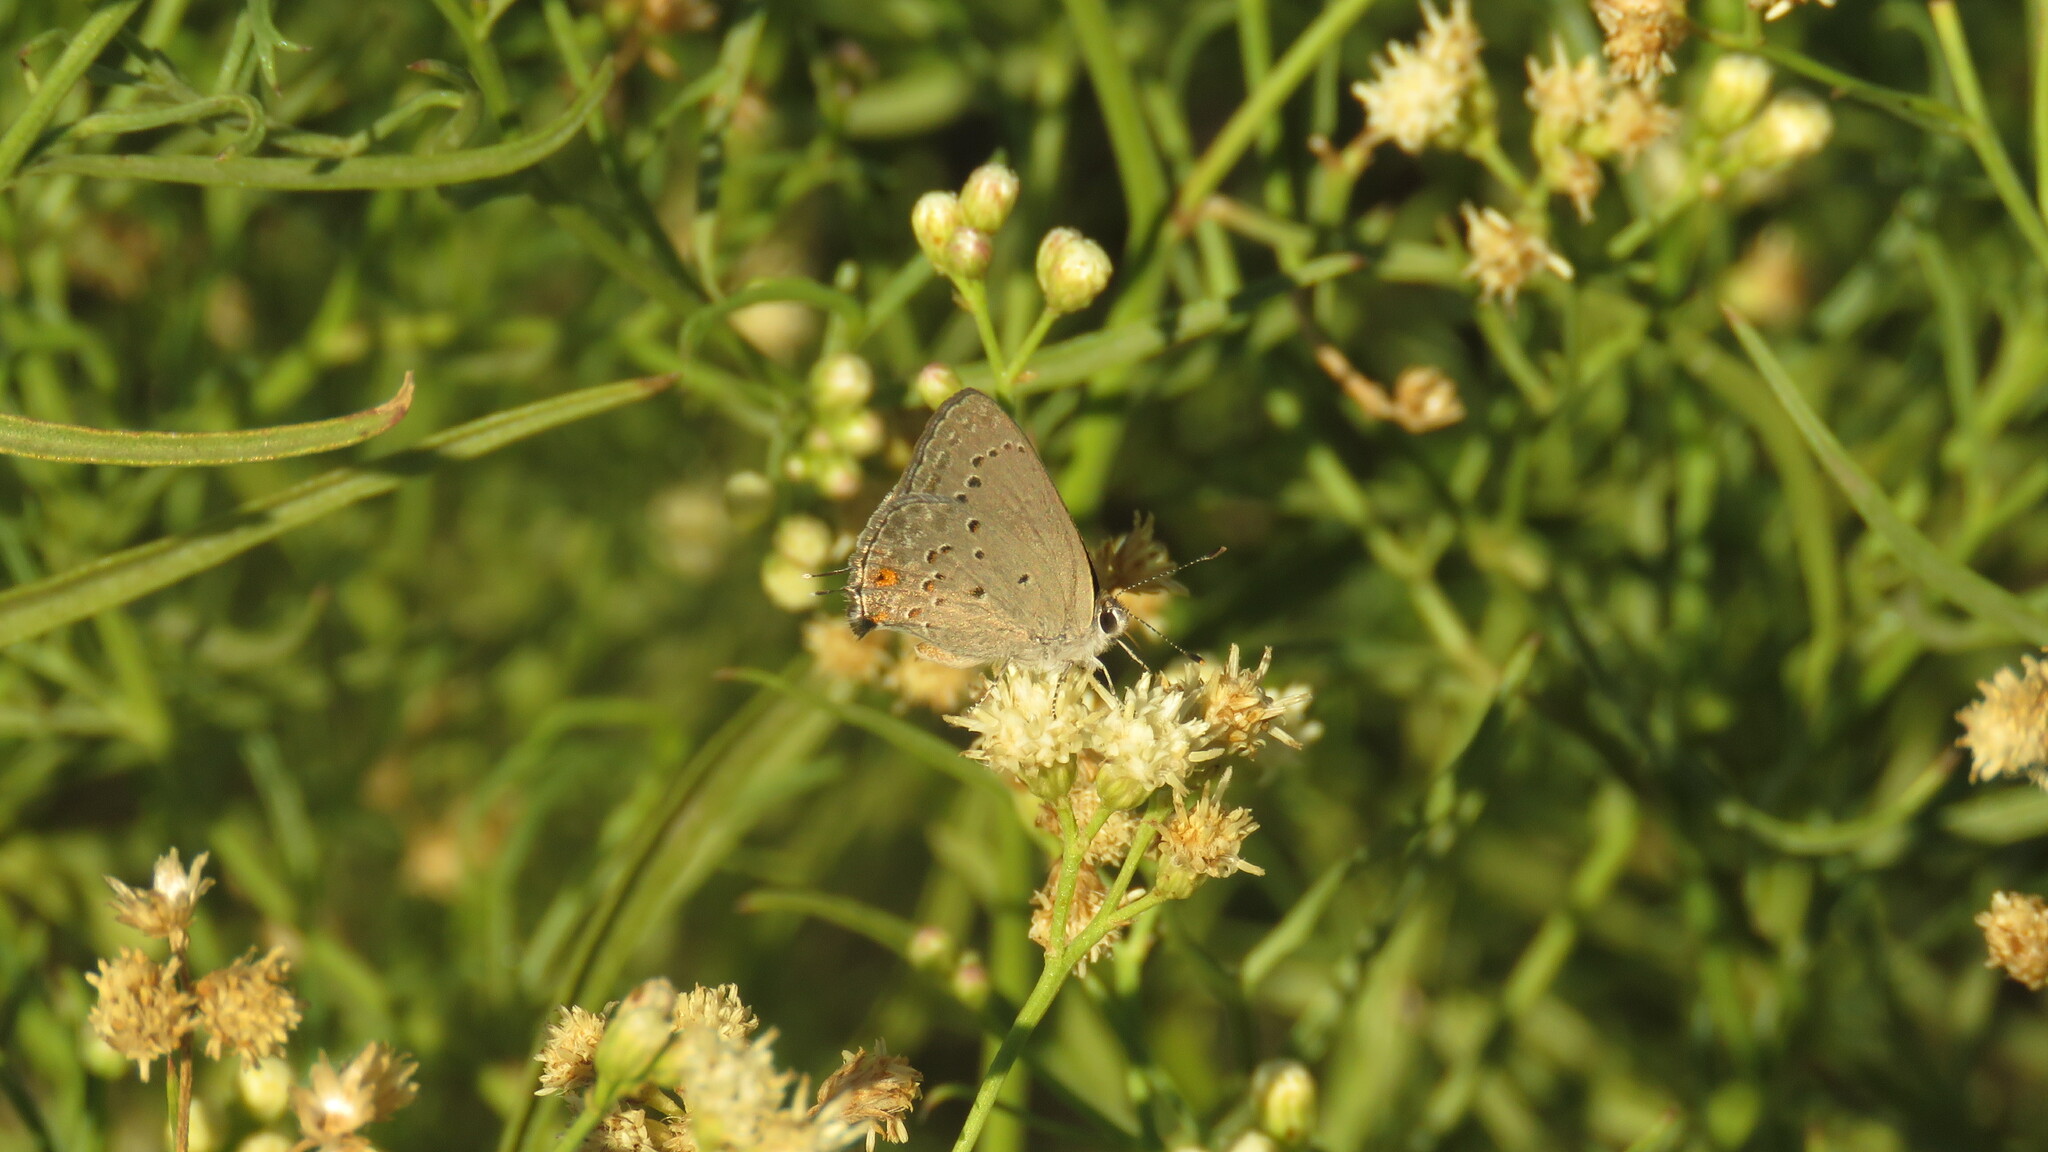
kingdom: Animalia
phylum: Arthropoda
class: Insecta
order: Lepidoptera
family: Lycaenidae
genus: Strymon
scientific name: Strymon eurytulus
